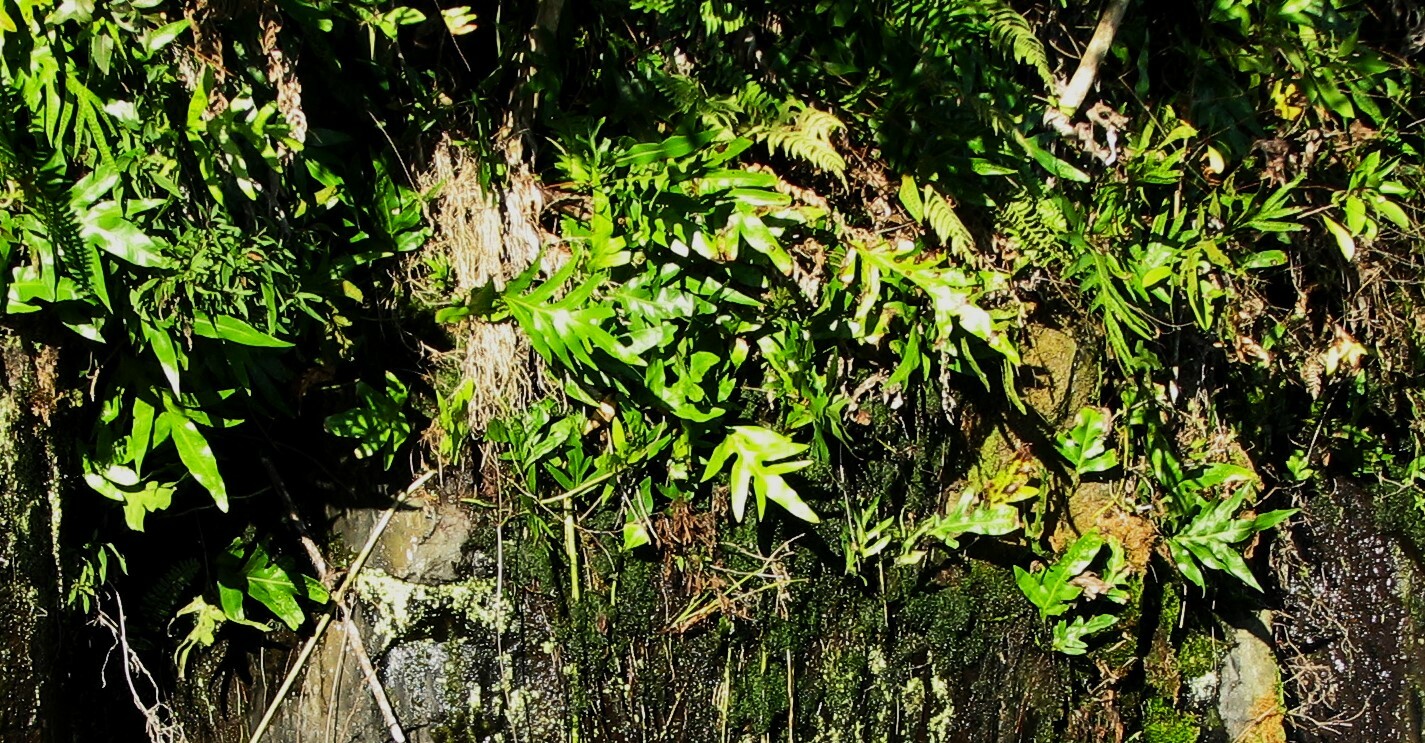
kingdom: Plantae
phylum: Tracheophyta
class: Polypodiopsida
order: Polypodiales
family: Polypodiaceae
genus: Microsorum
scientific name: Microsorum grossum
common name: Musk fern
